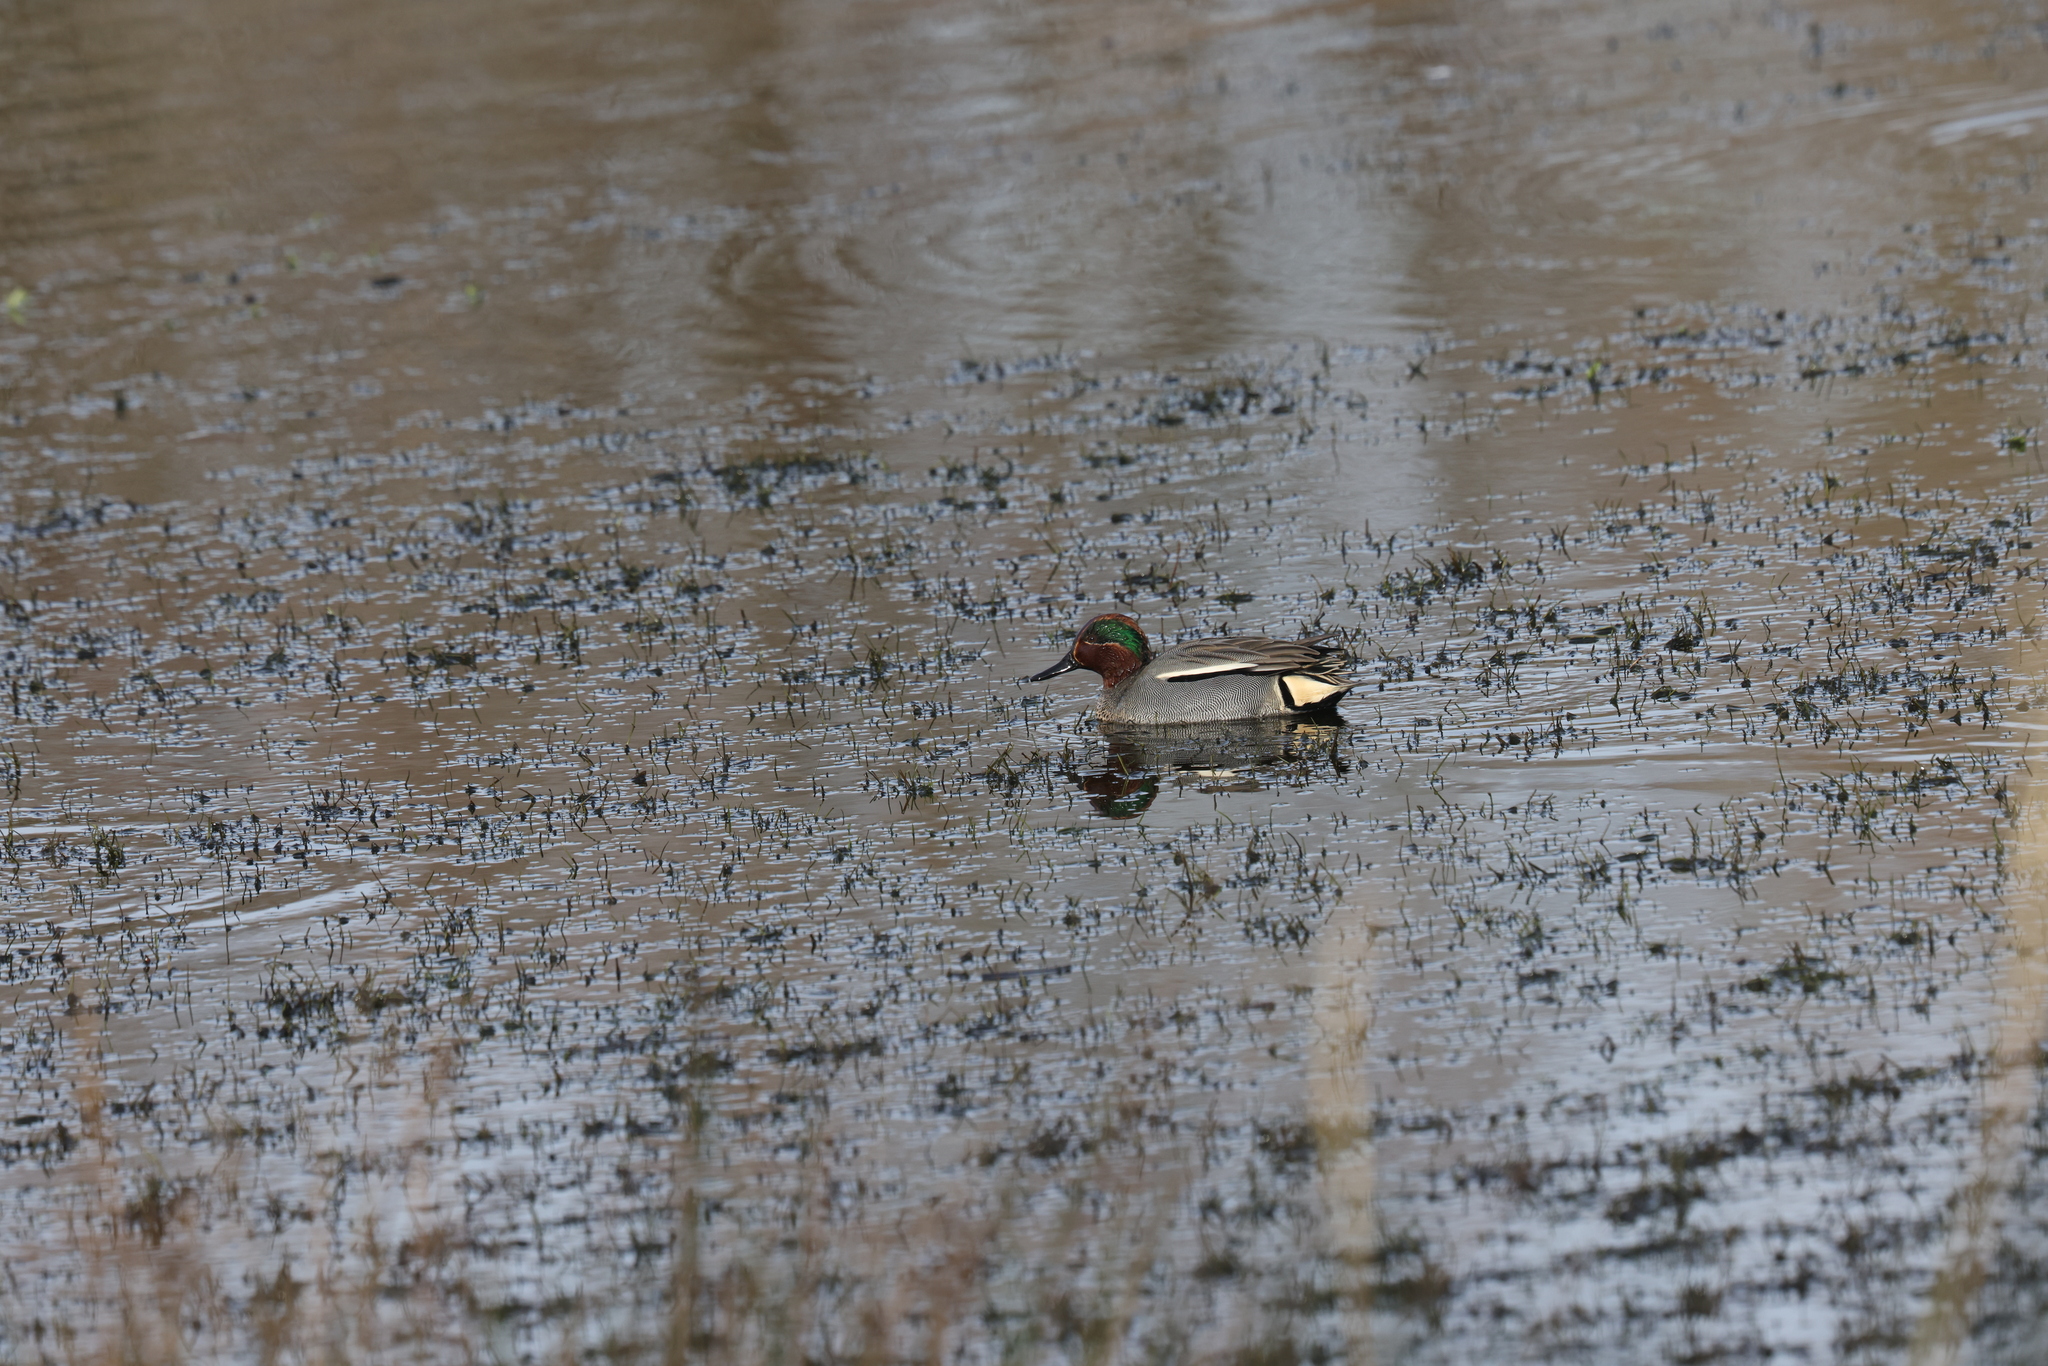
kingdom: Animalia
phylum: Chordata
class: Aves
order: Anseriformes
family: Anatidae
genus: Anas
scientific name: Anas crecca
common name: Eurasian teal
